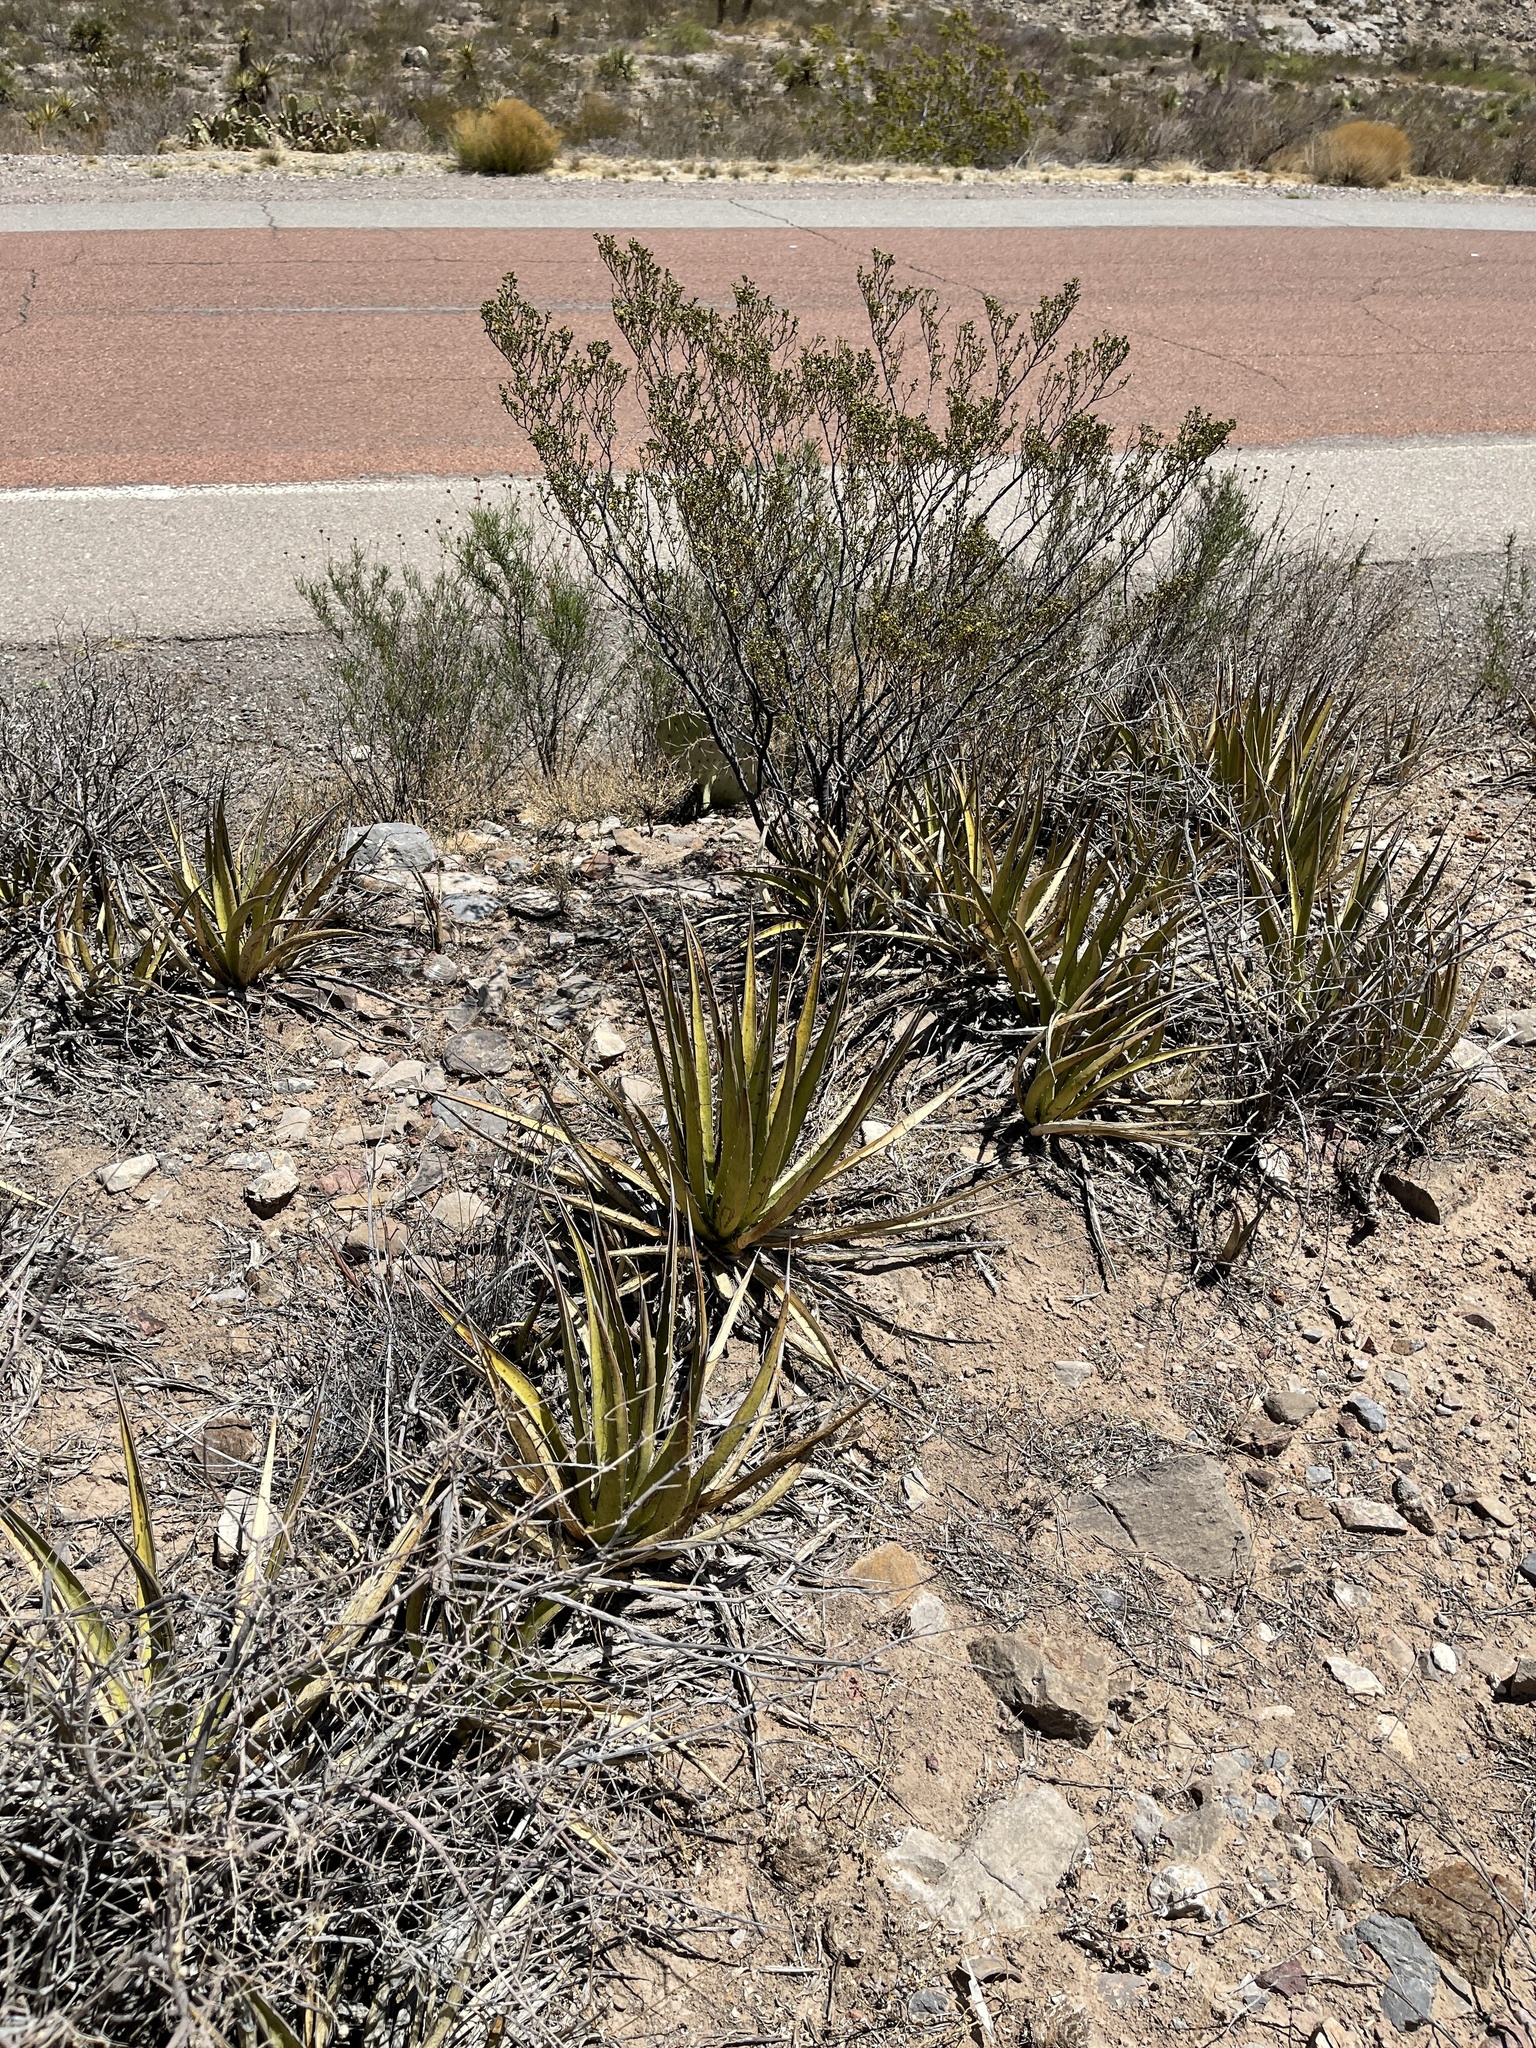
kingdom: Plantae
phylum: Tracheophyta
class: Liliopsida
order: Asparagales
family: Asparagaceae
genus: Agave
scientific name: Agave lechuguilla
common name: Lecheguilla agave
